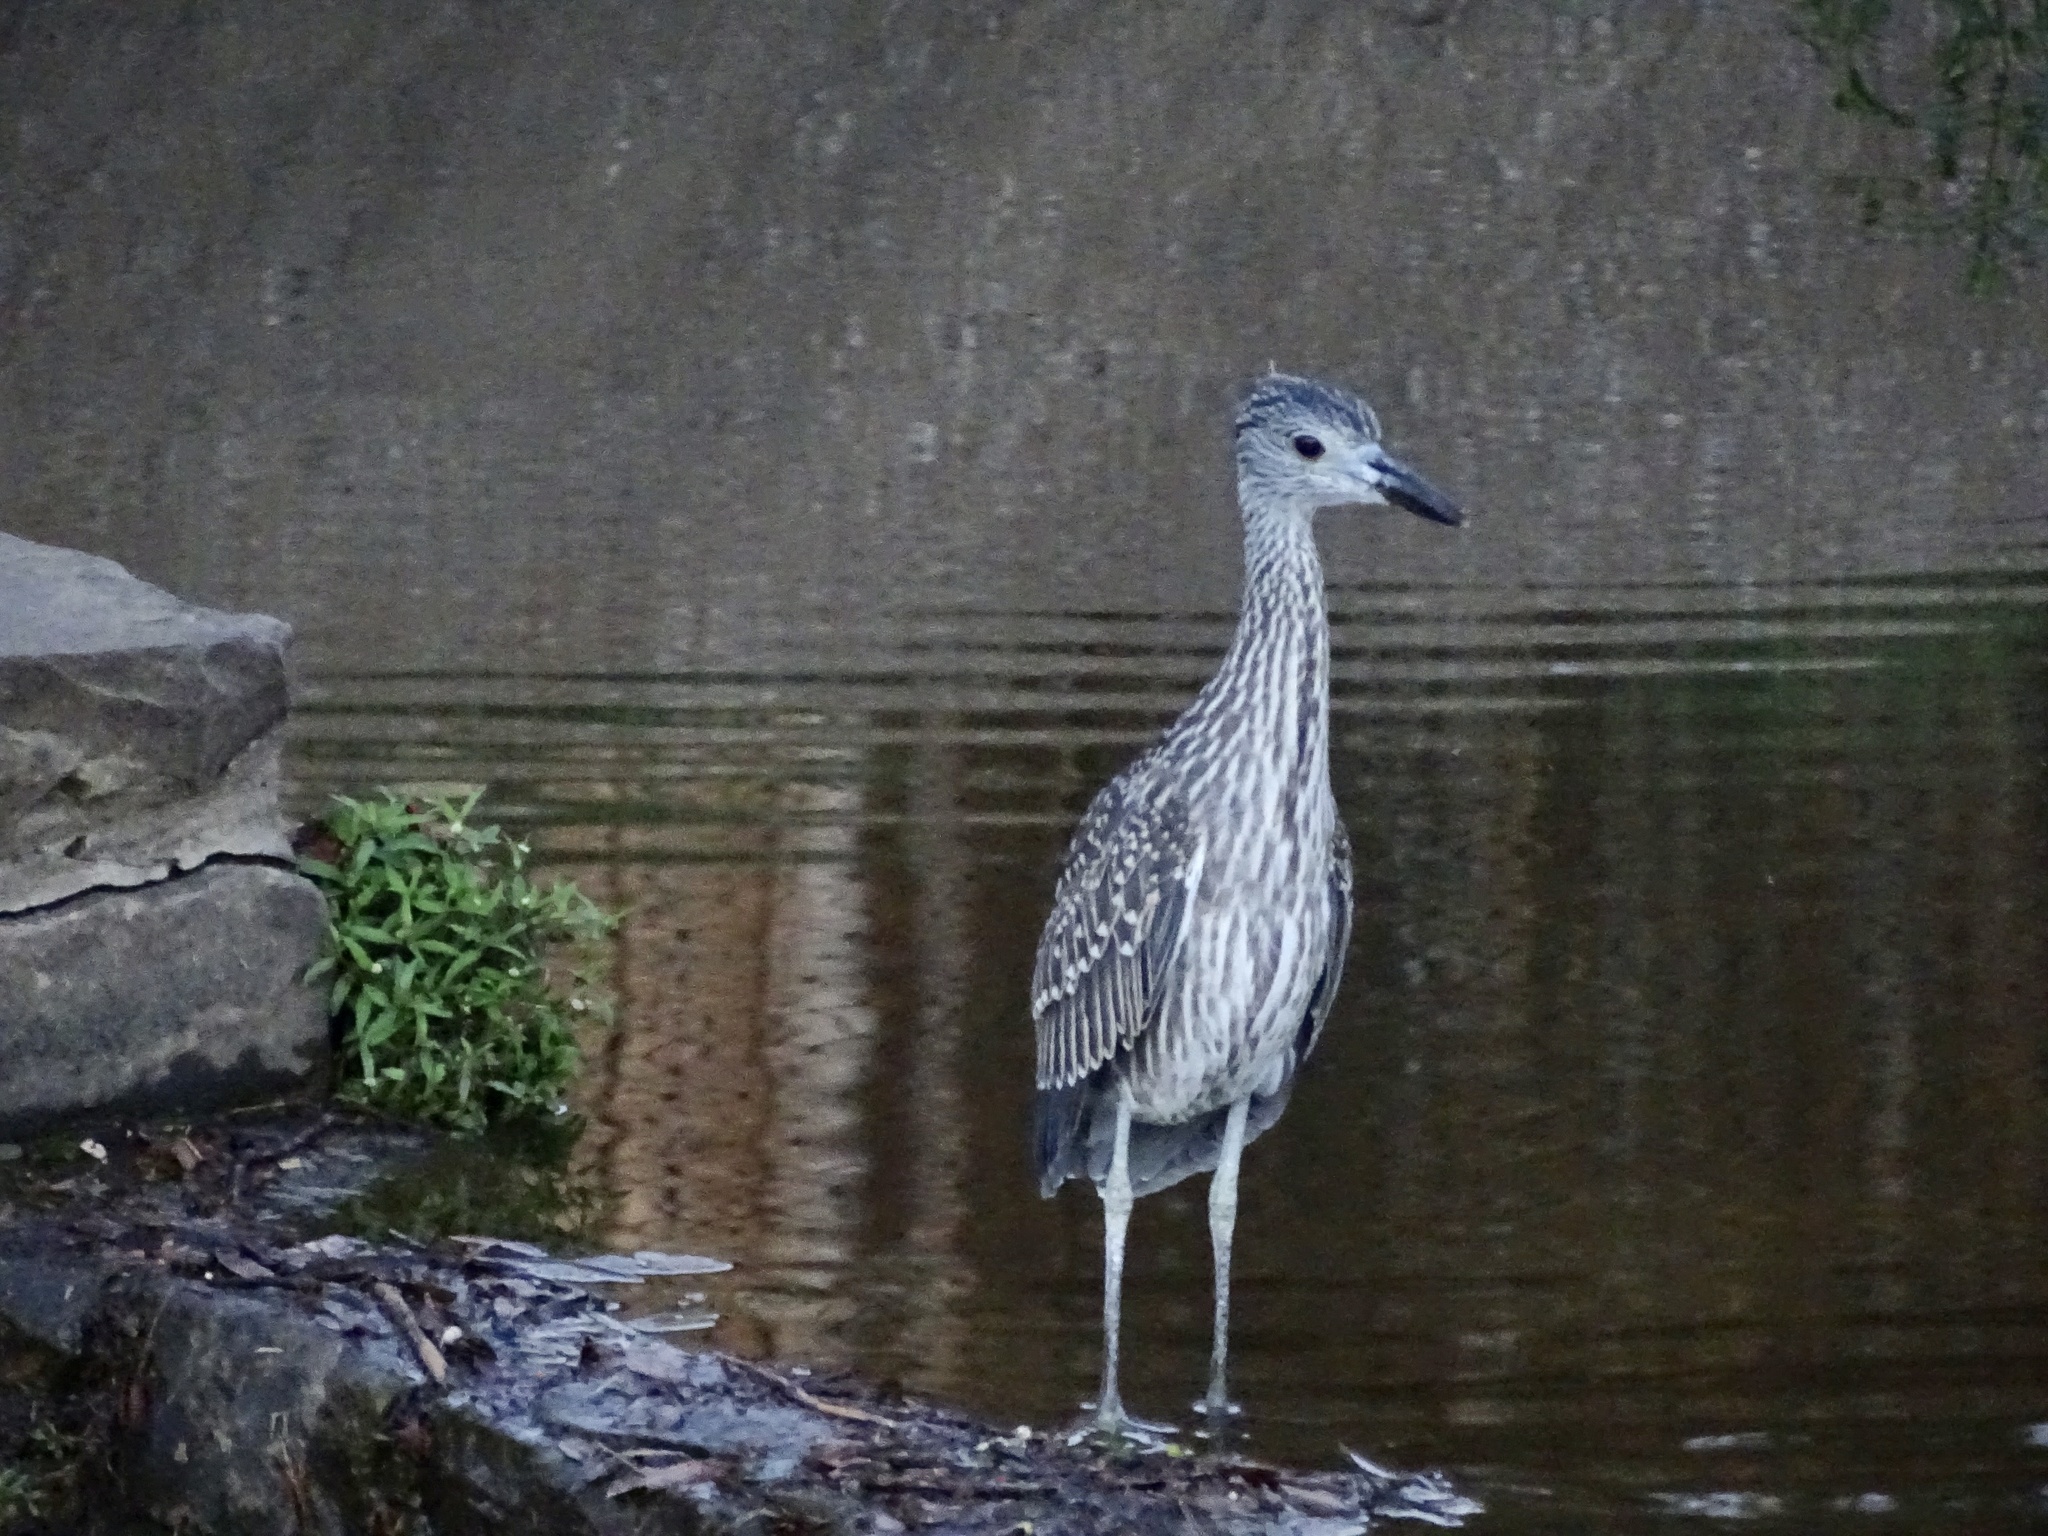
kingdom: Animalia
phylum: Chordata
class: Aves
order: Pelecaniformes
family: Ardeidae
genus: Nyctanassa
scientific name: Nyctanassa violacea
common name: Yellow-crowned night heron
